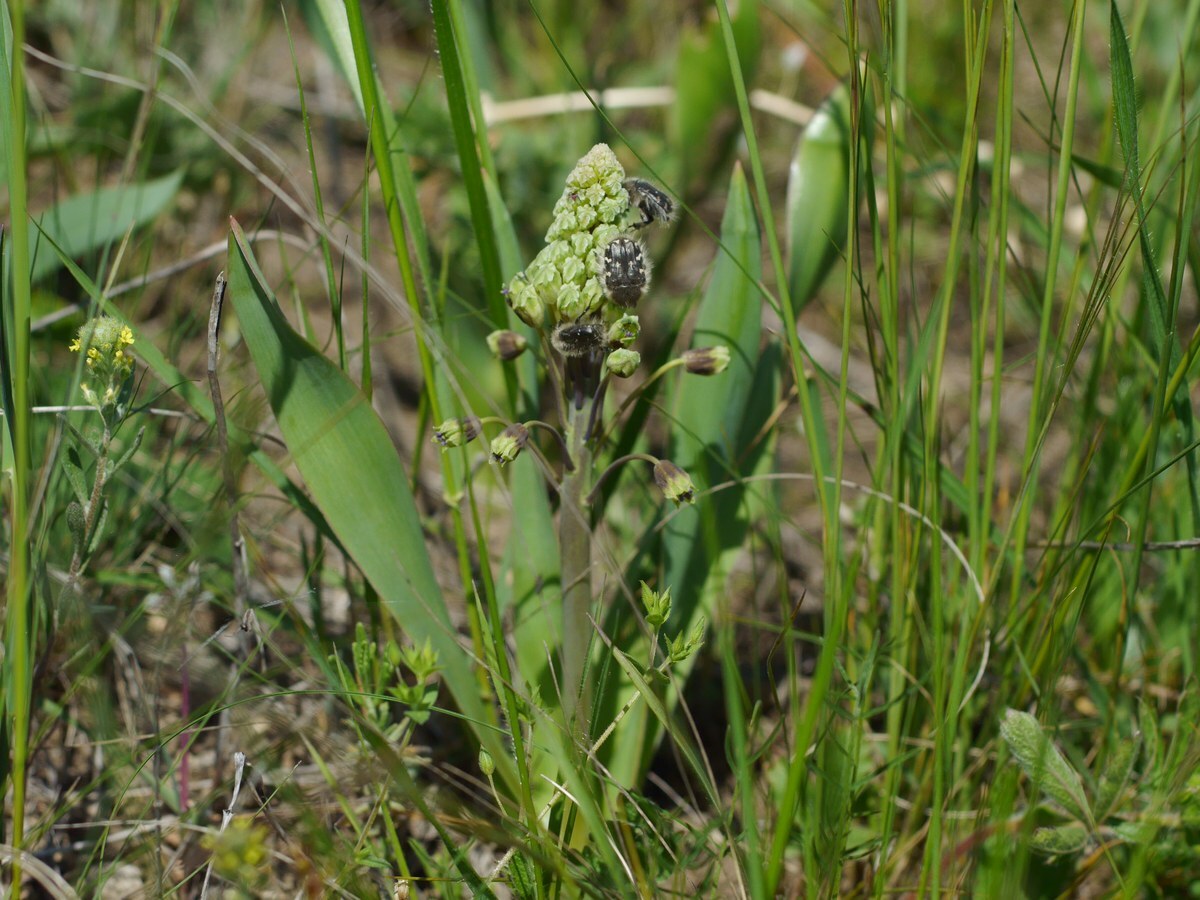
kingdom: Plantae
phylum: Tracheophyta
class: Liliopsida
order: Asparagales
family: Asparagaceae
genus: Bellevalia
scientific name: Bellevalia speciosa
